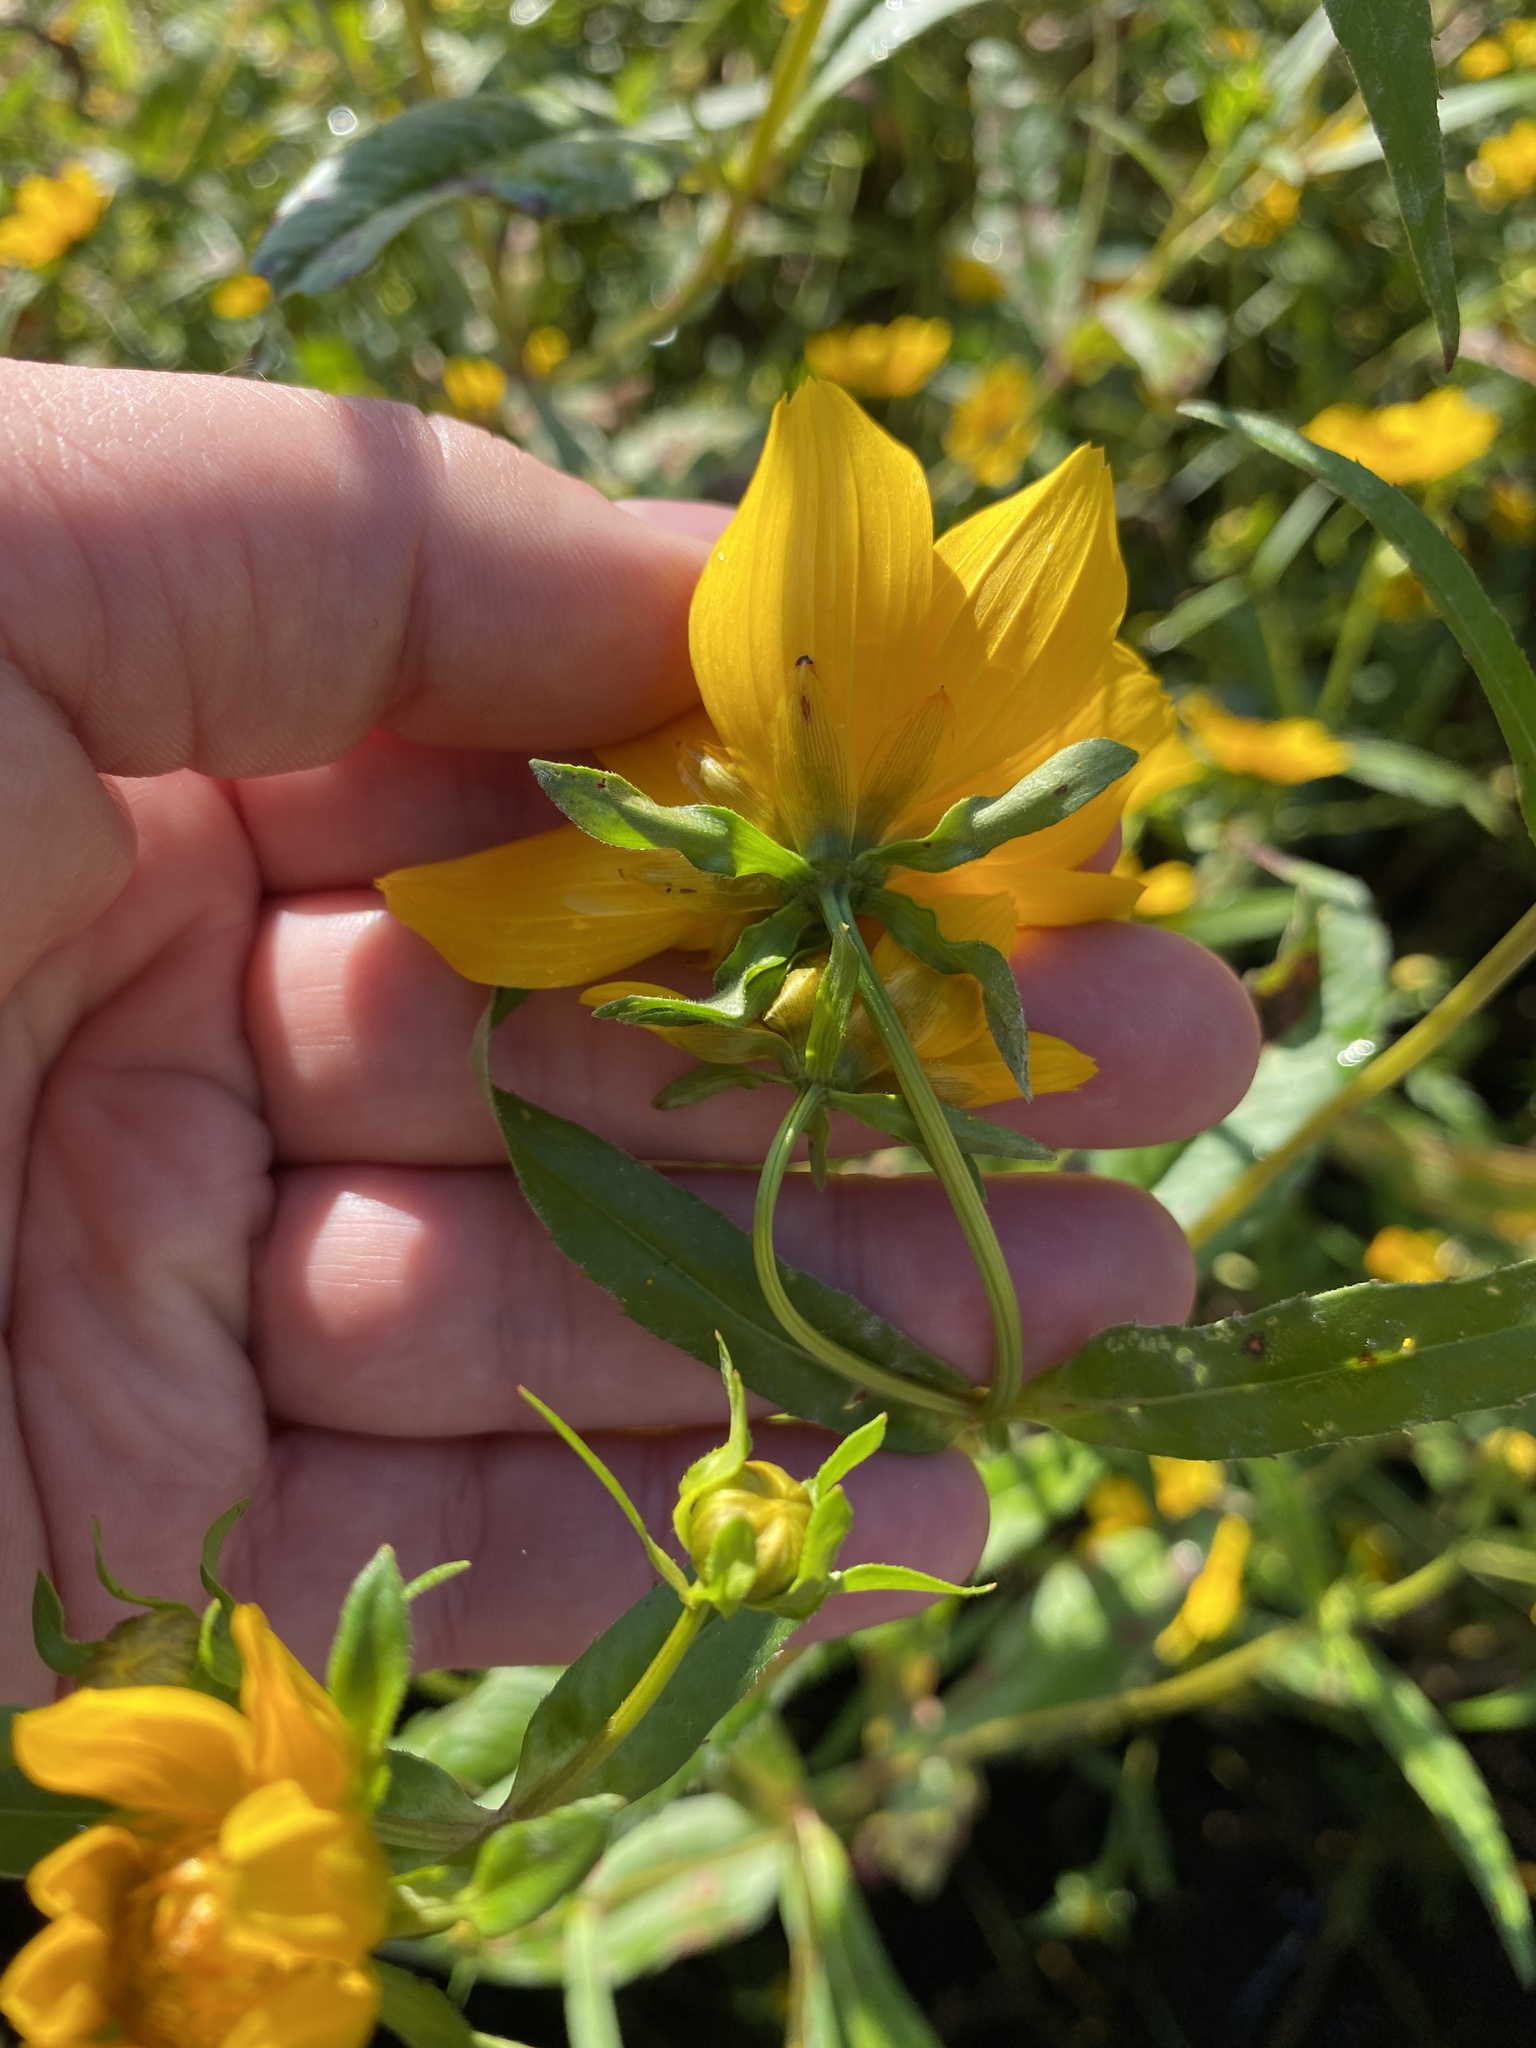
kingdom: Plantae
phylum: Tracheophyta
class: Magnoliopsida
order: Asterales
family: Asteraceae
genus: Bidens
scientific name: Bidens laevis
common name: Larger bur-marigold
